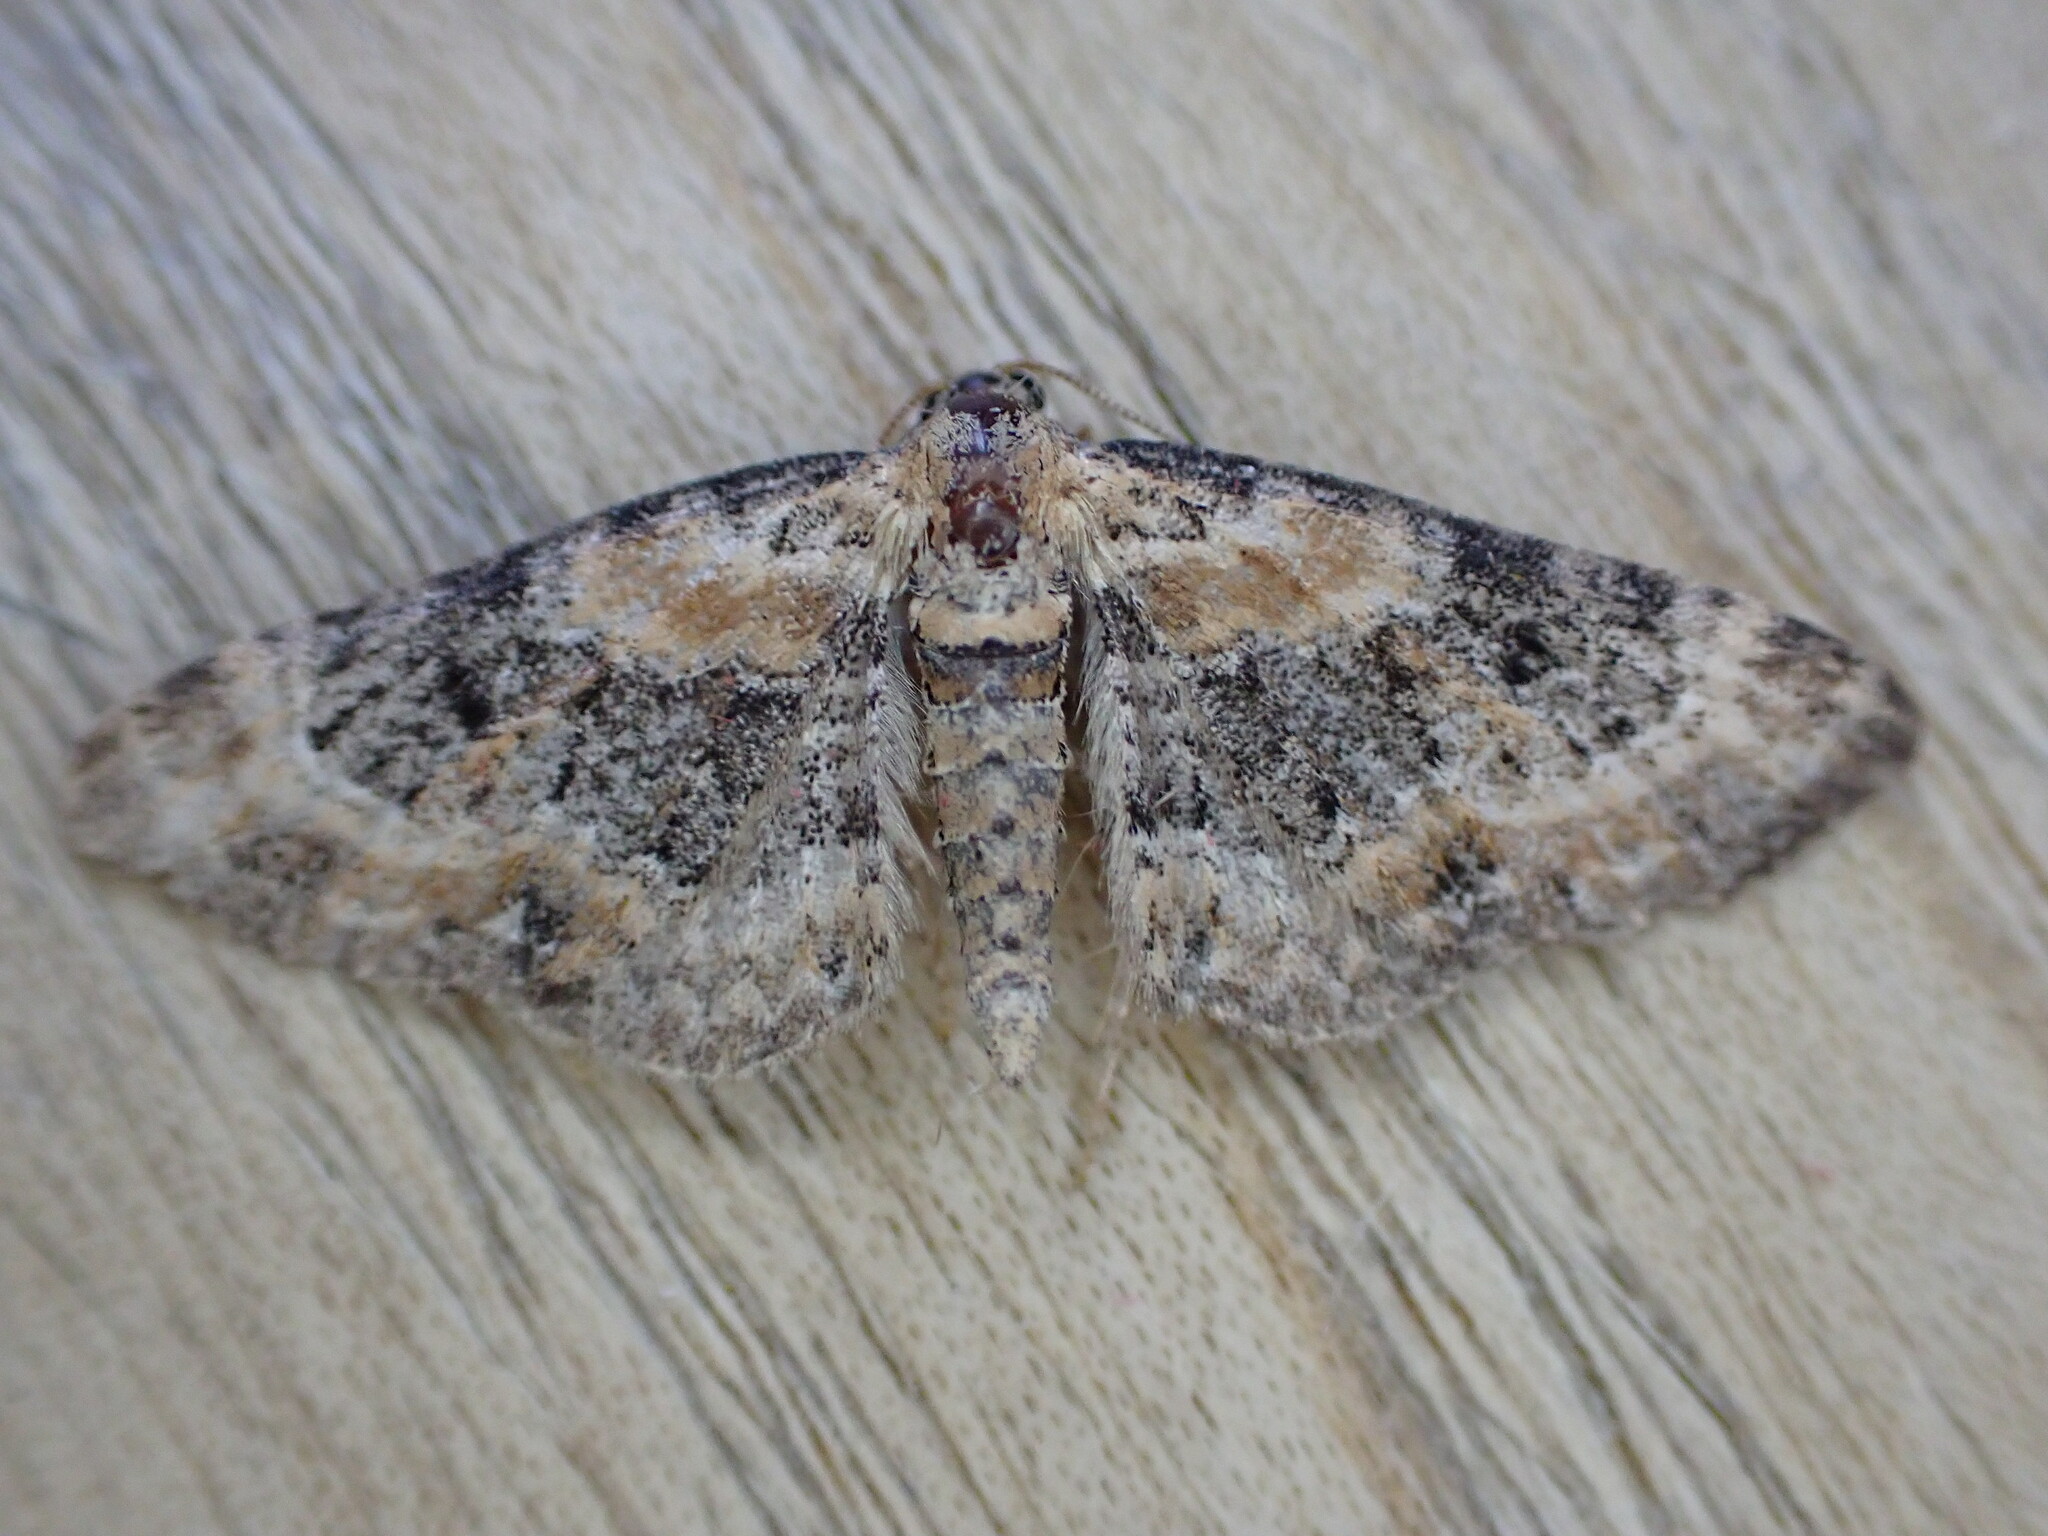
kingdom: Animalia
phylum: Arthropoda
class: Insecta
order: Lepidoptera
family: Geometridae
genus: Eupithecia
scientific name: Eupithecia pulchellata
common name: Foxglove pug
